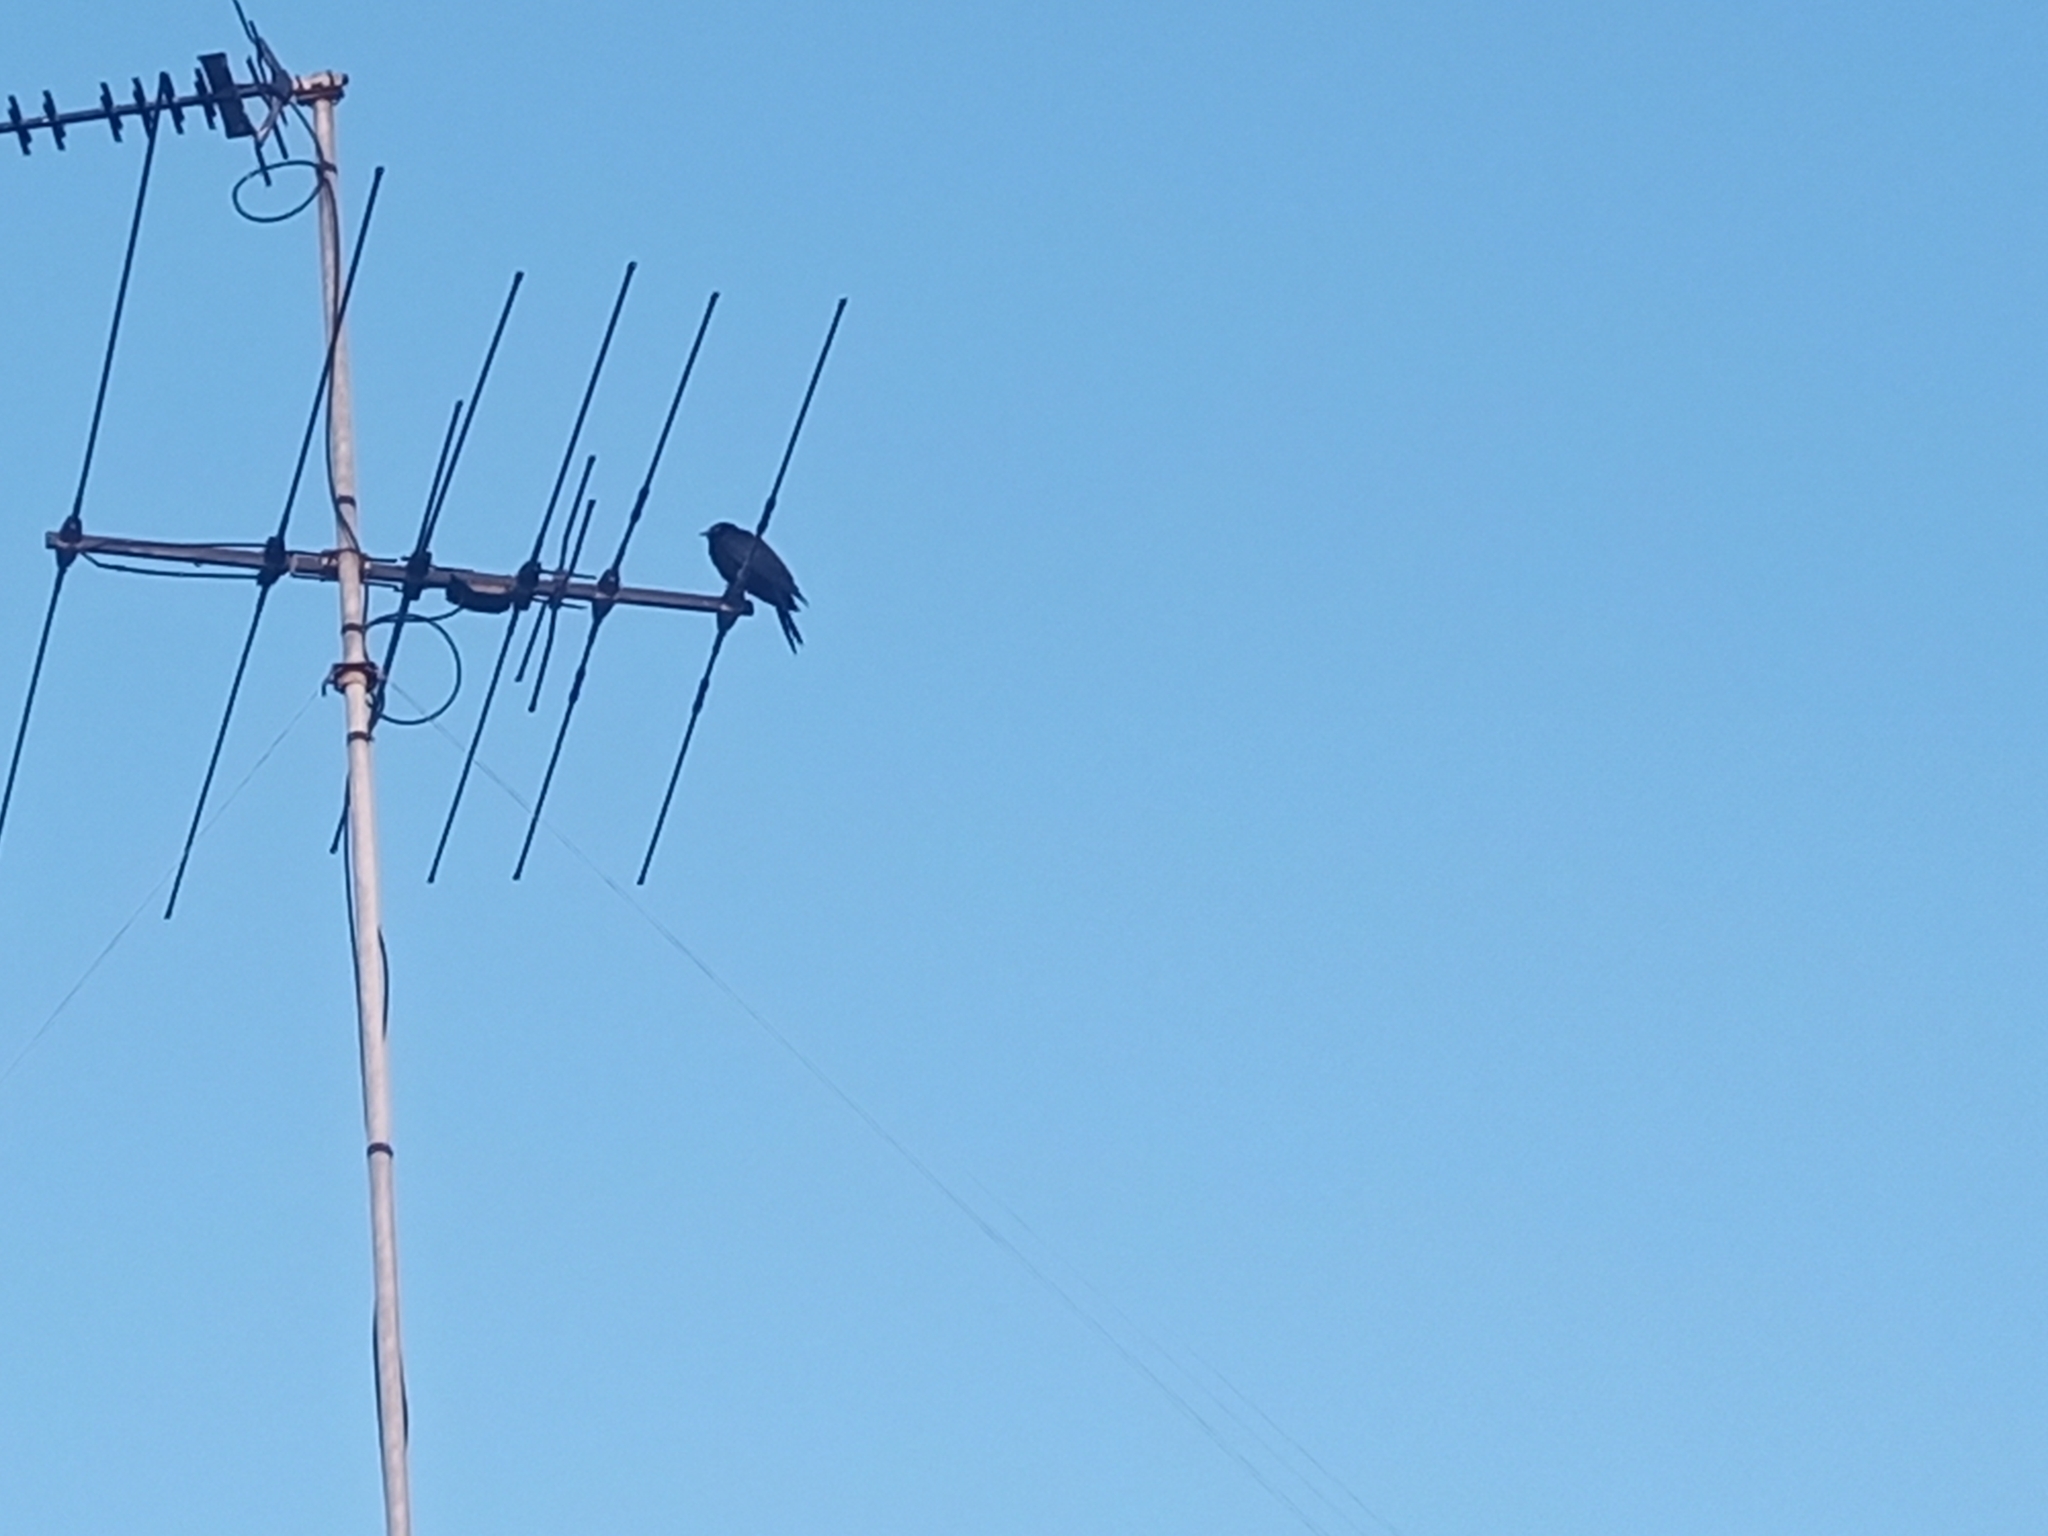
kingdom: Animalia
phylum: Chordata
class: Aves
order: Cuculiformes
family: Cuculidae
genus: Eudynamys
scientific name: Eudynamys scolopaceus
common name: Asian koel
